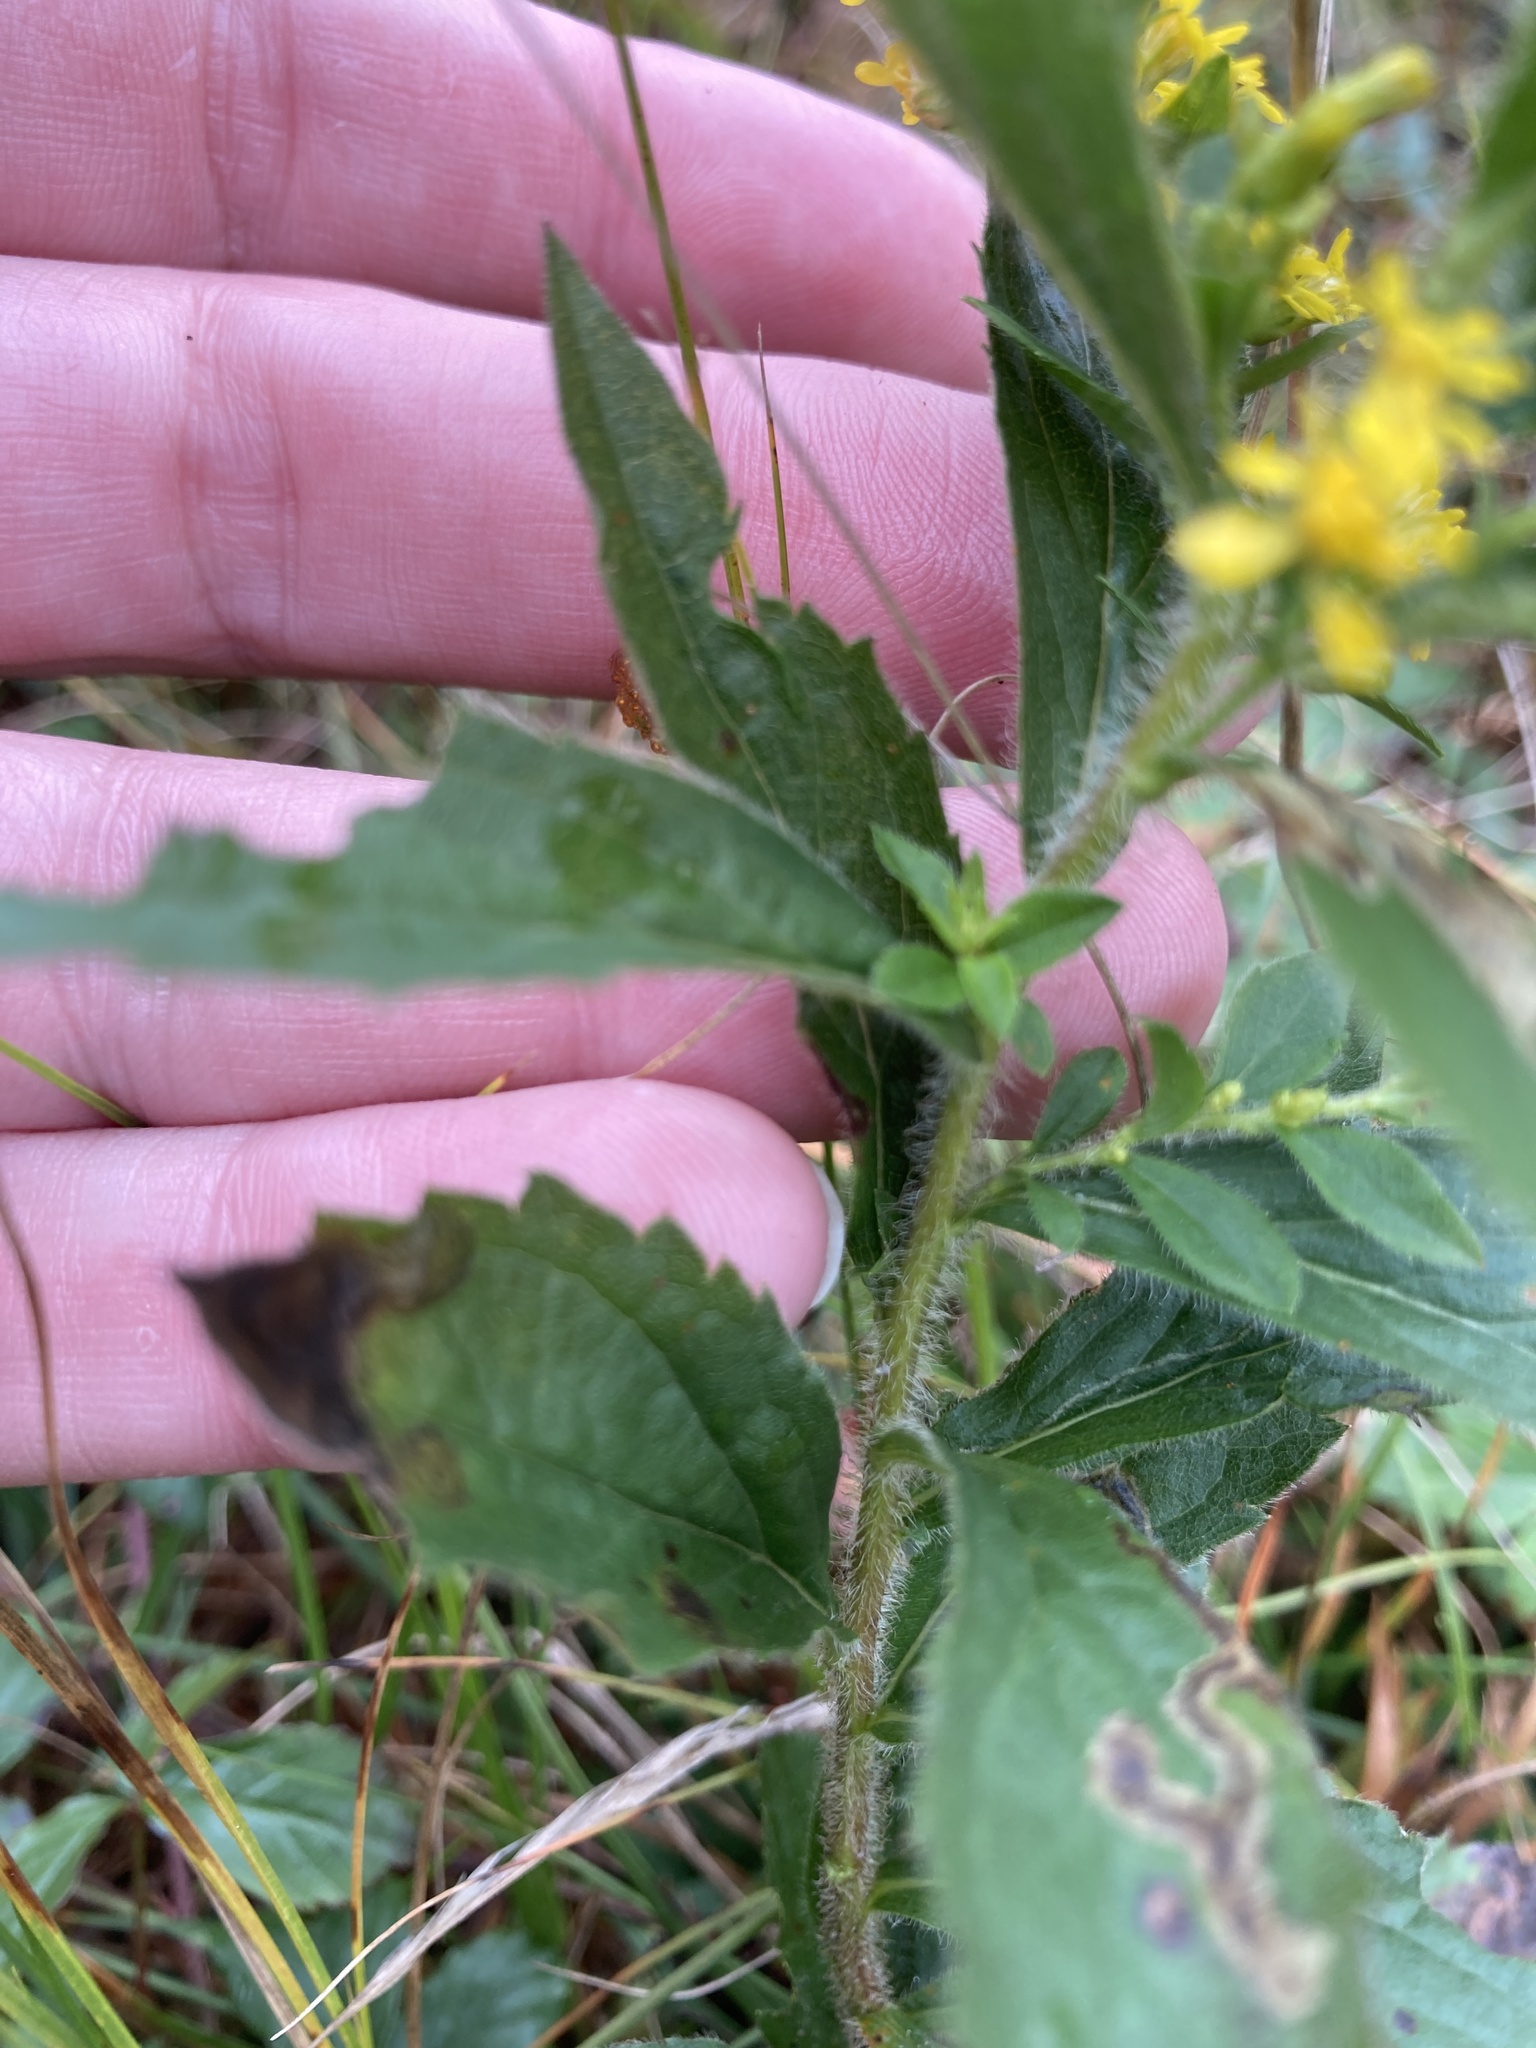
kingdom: Plantae
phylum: Tracheophyta
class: Magnoliopsida
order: Asterales
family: Asteraceae
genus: Solidago
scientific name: Solidago rugosa
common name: Rough-stemmed goldenrod
